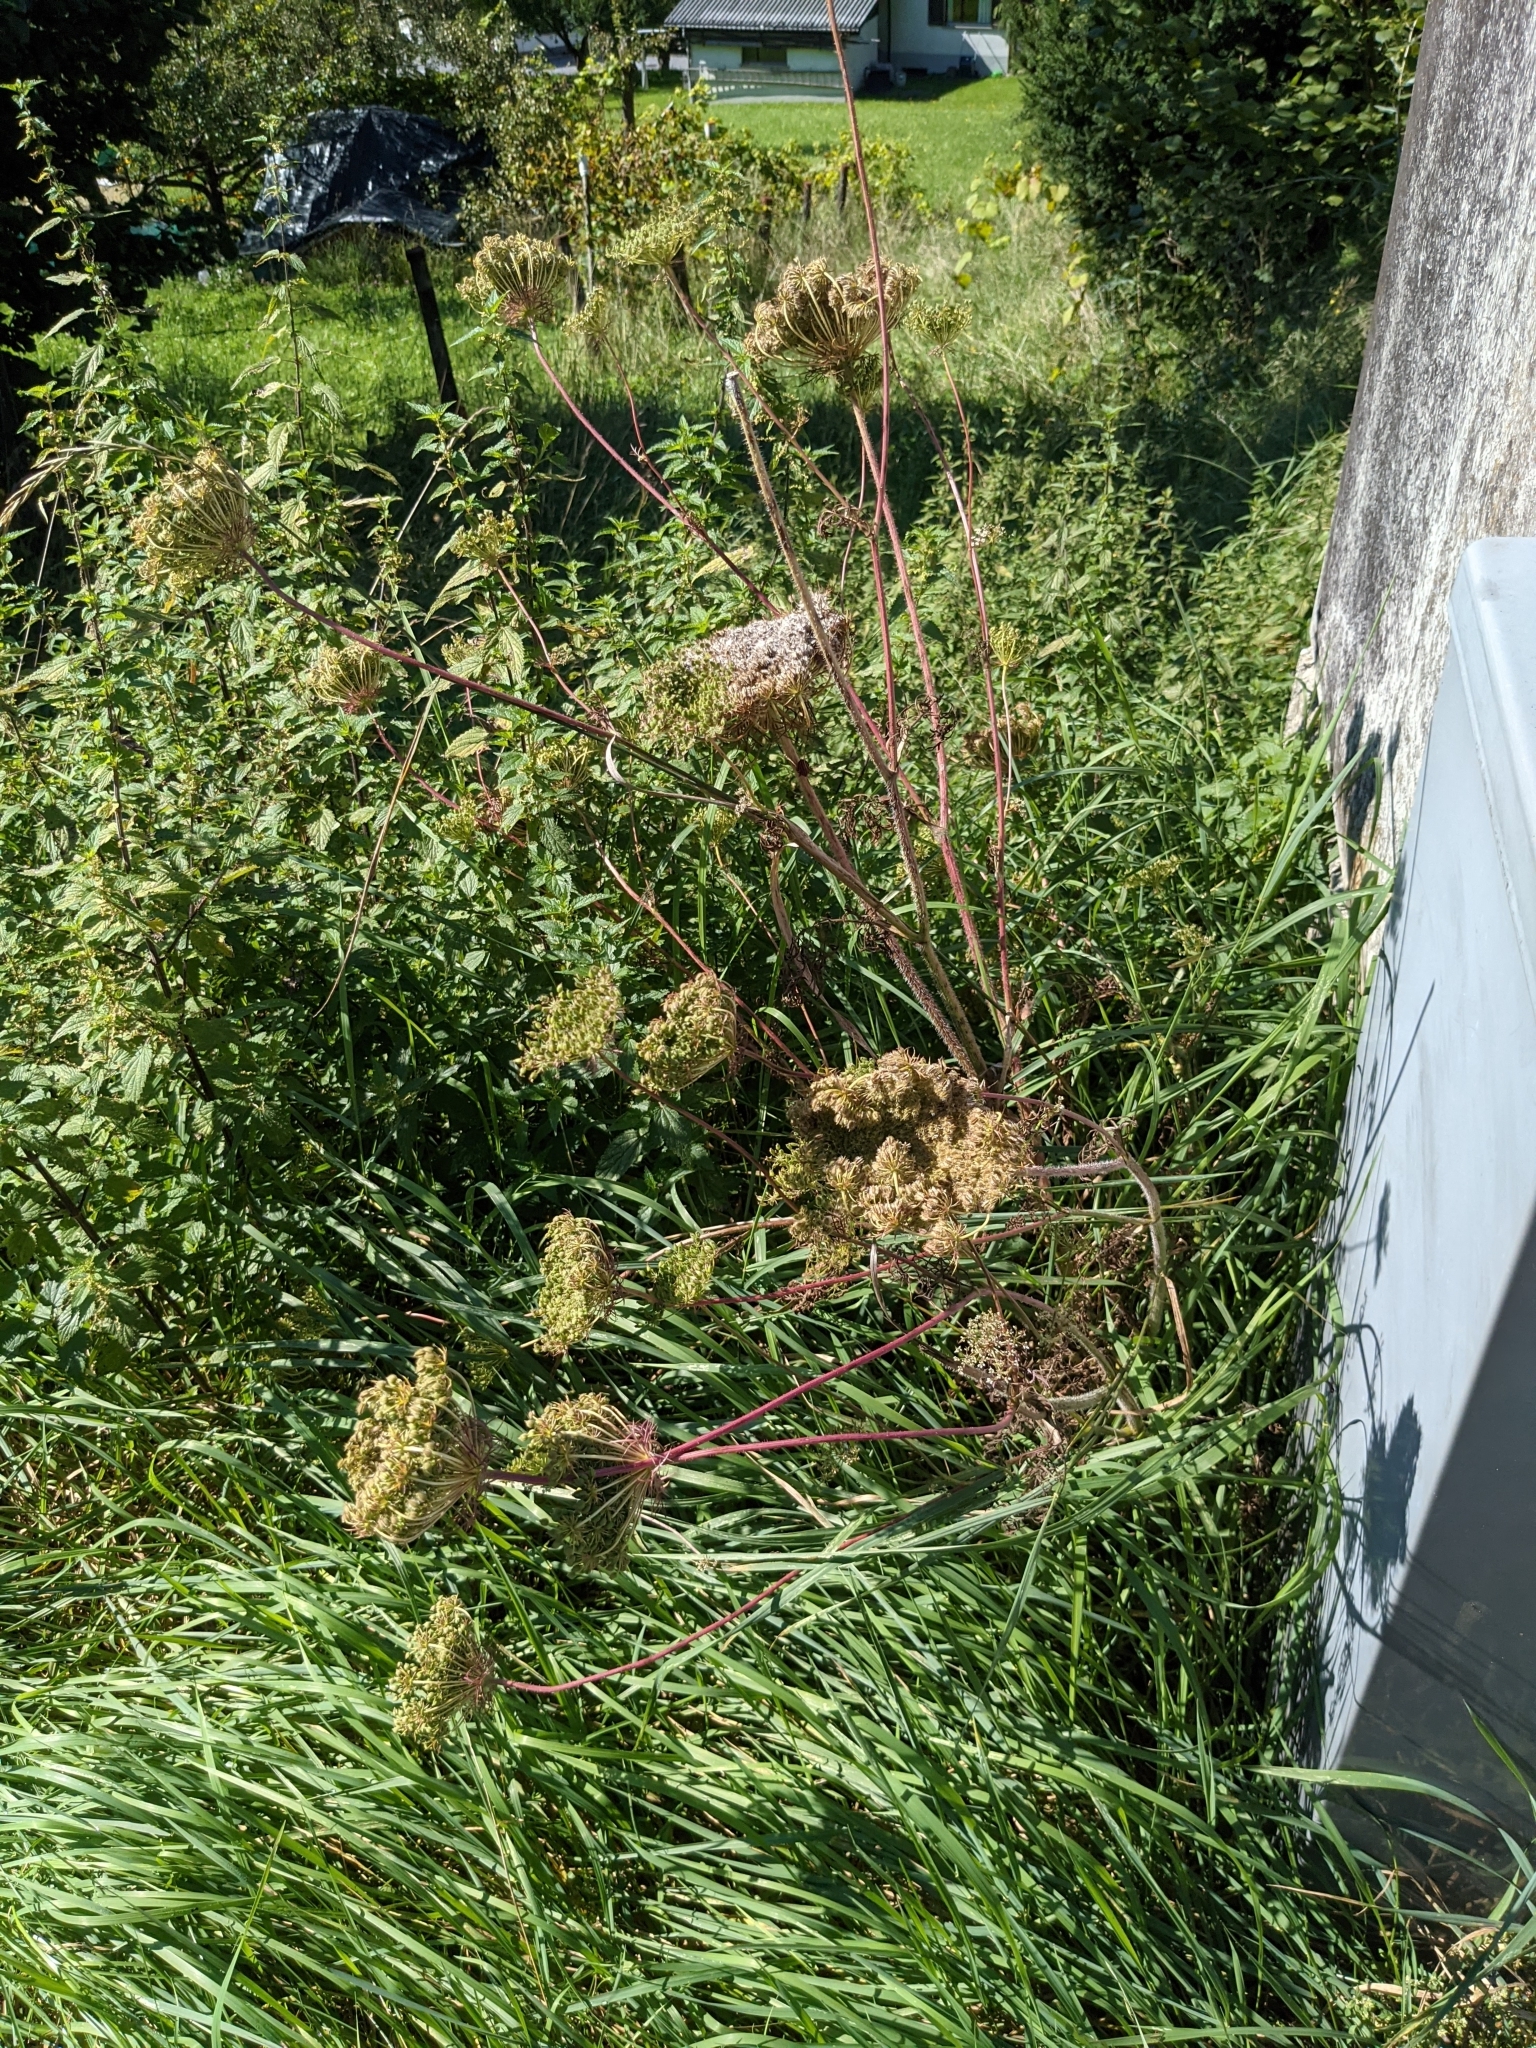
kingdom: Plantae
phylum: Tracheophyta
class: Magnoliopsida
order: Apiales
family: Apiaceae
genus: Daucus
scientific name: Daucus carota
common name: Wild carrot
